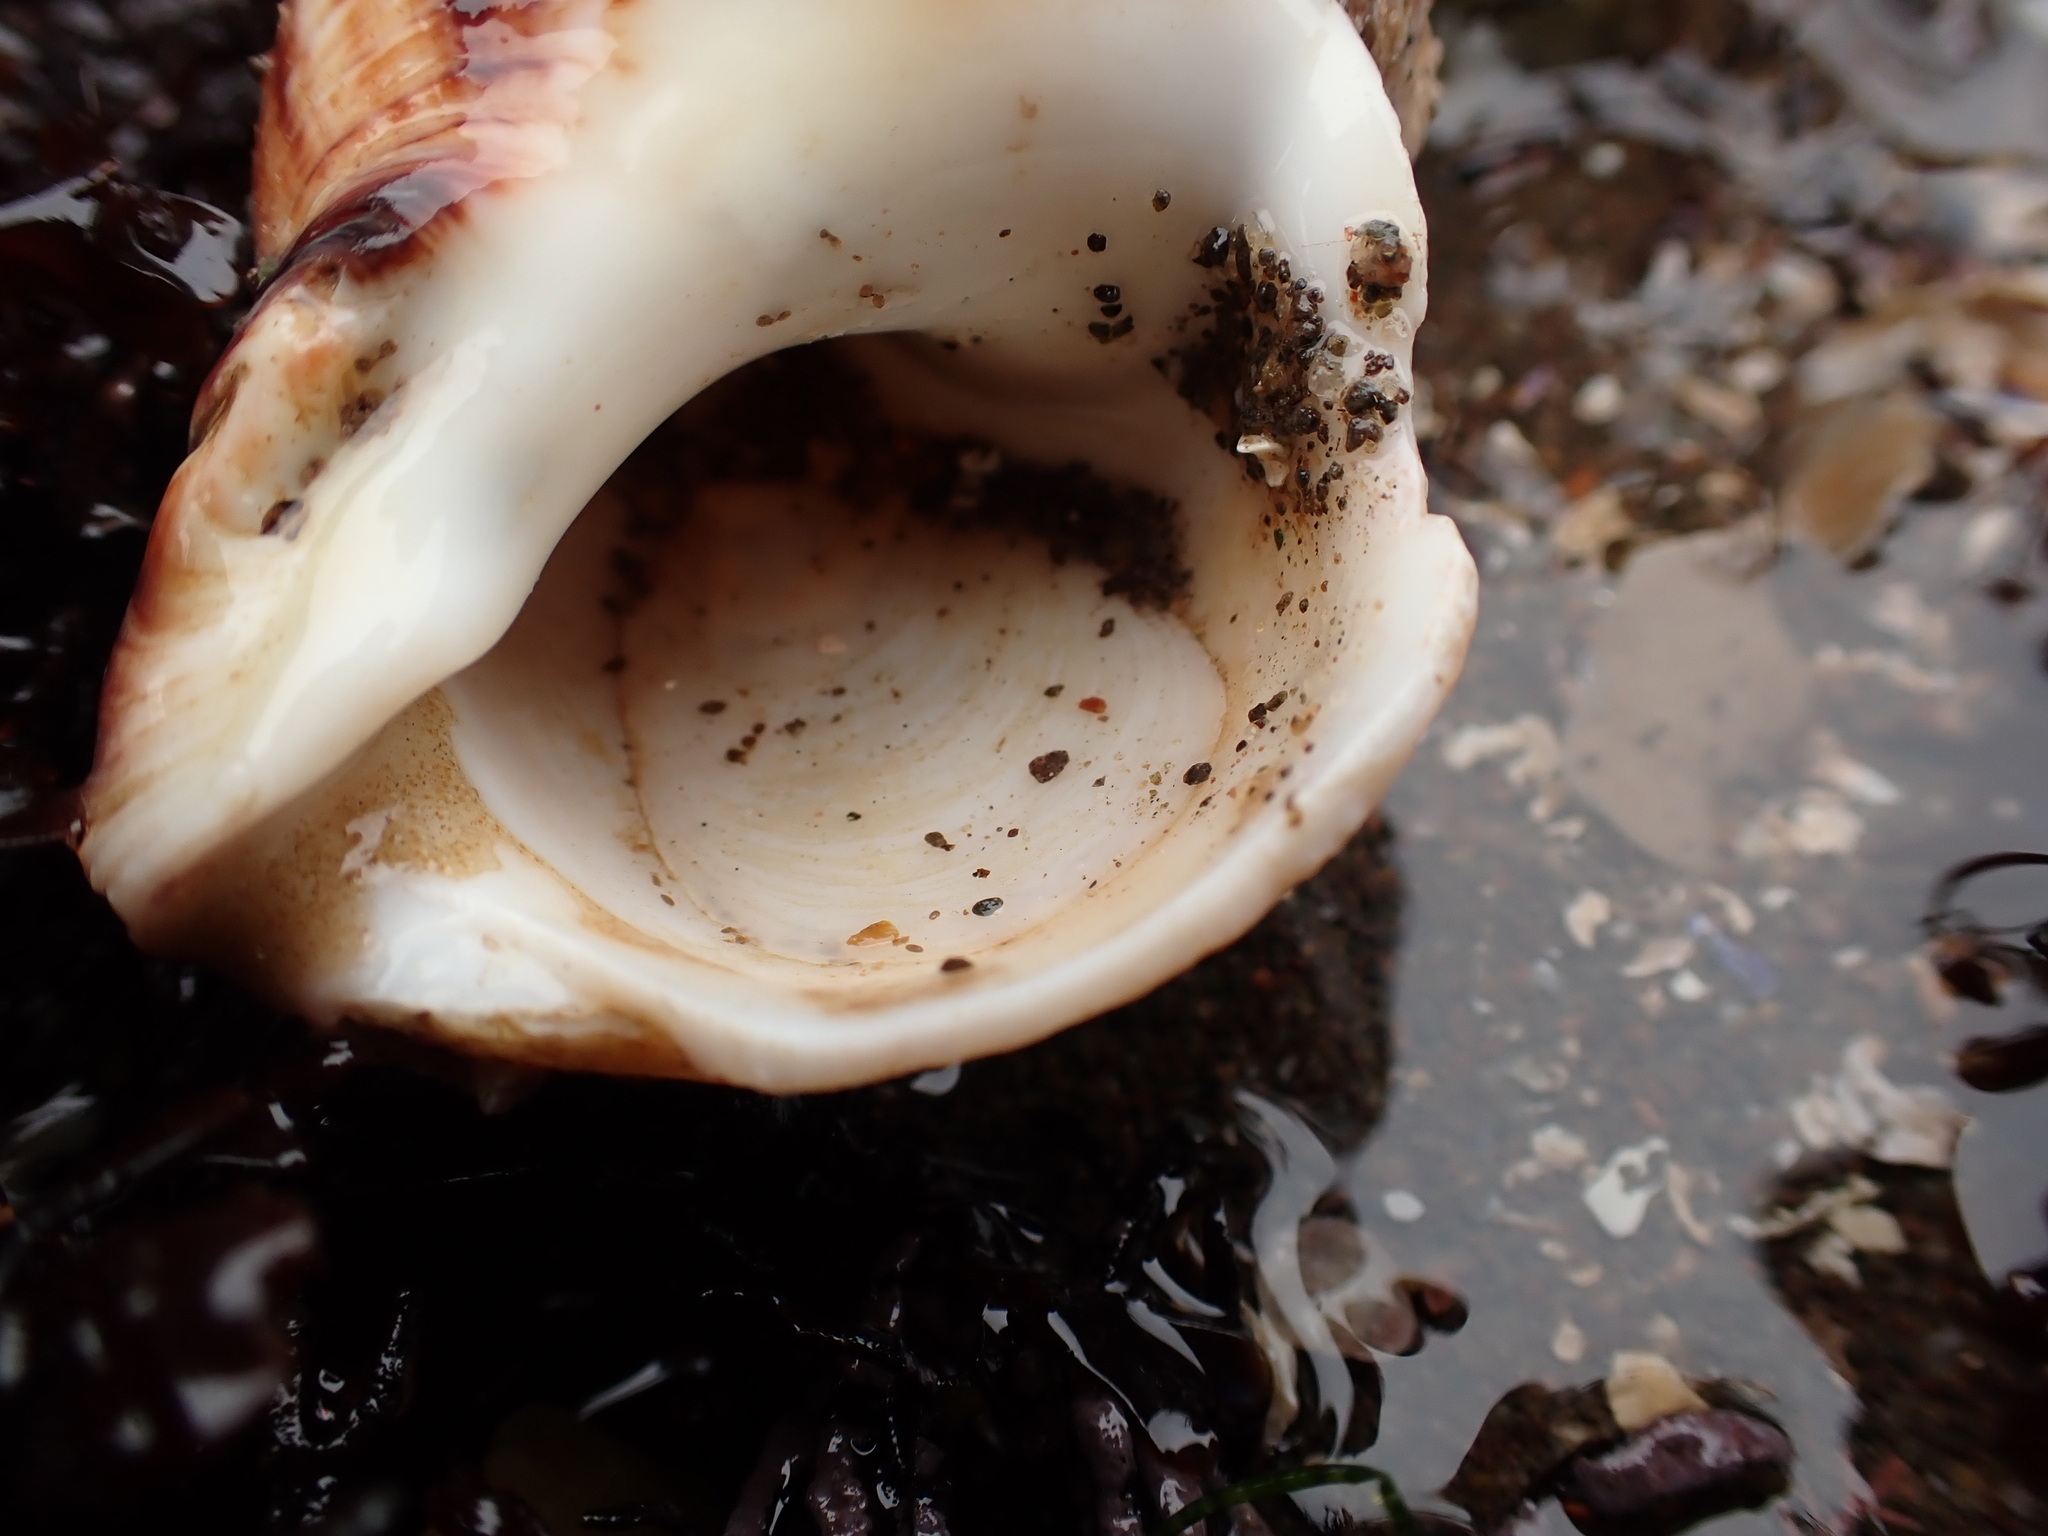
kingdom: Animalia
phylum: Mollusca
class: Gastropoda
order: Littorinimorpha
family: Calyptraeidae
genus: Crepidula
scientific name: Crepidula plana
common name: Eastern white slippersnail
